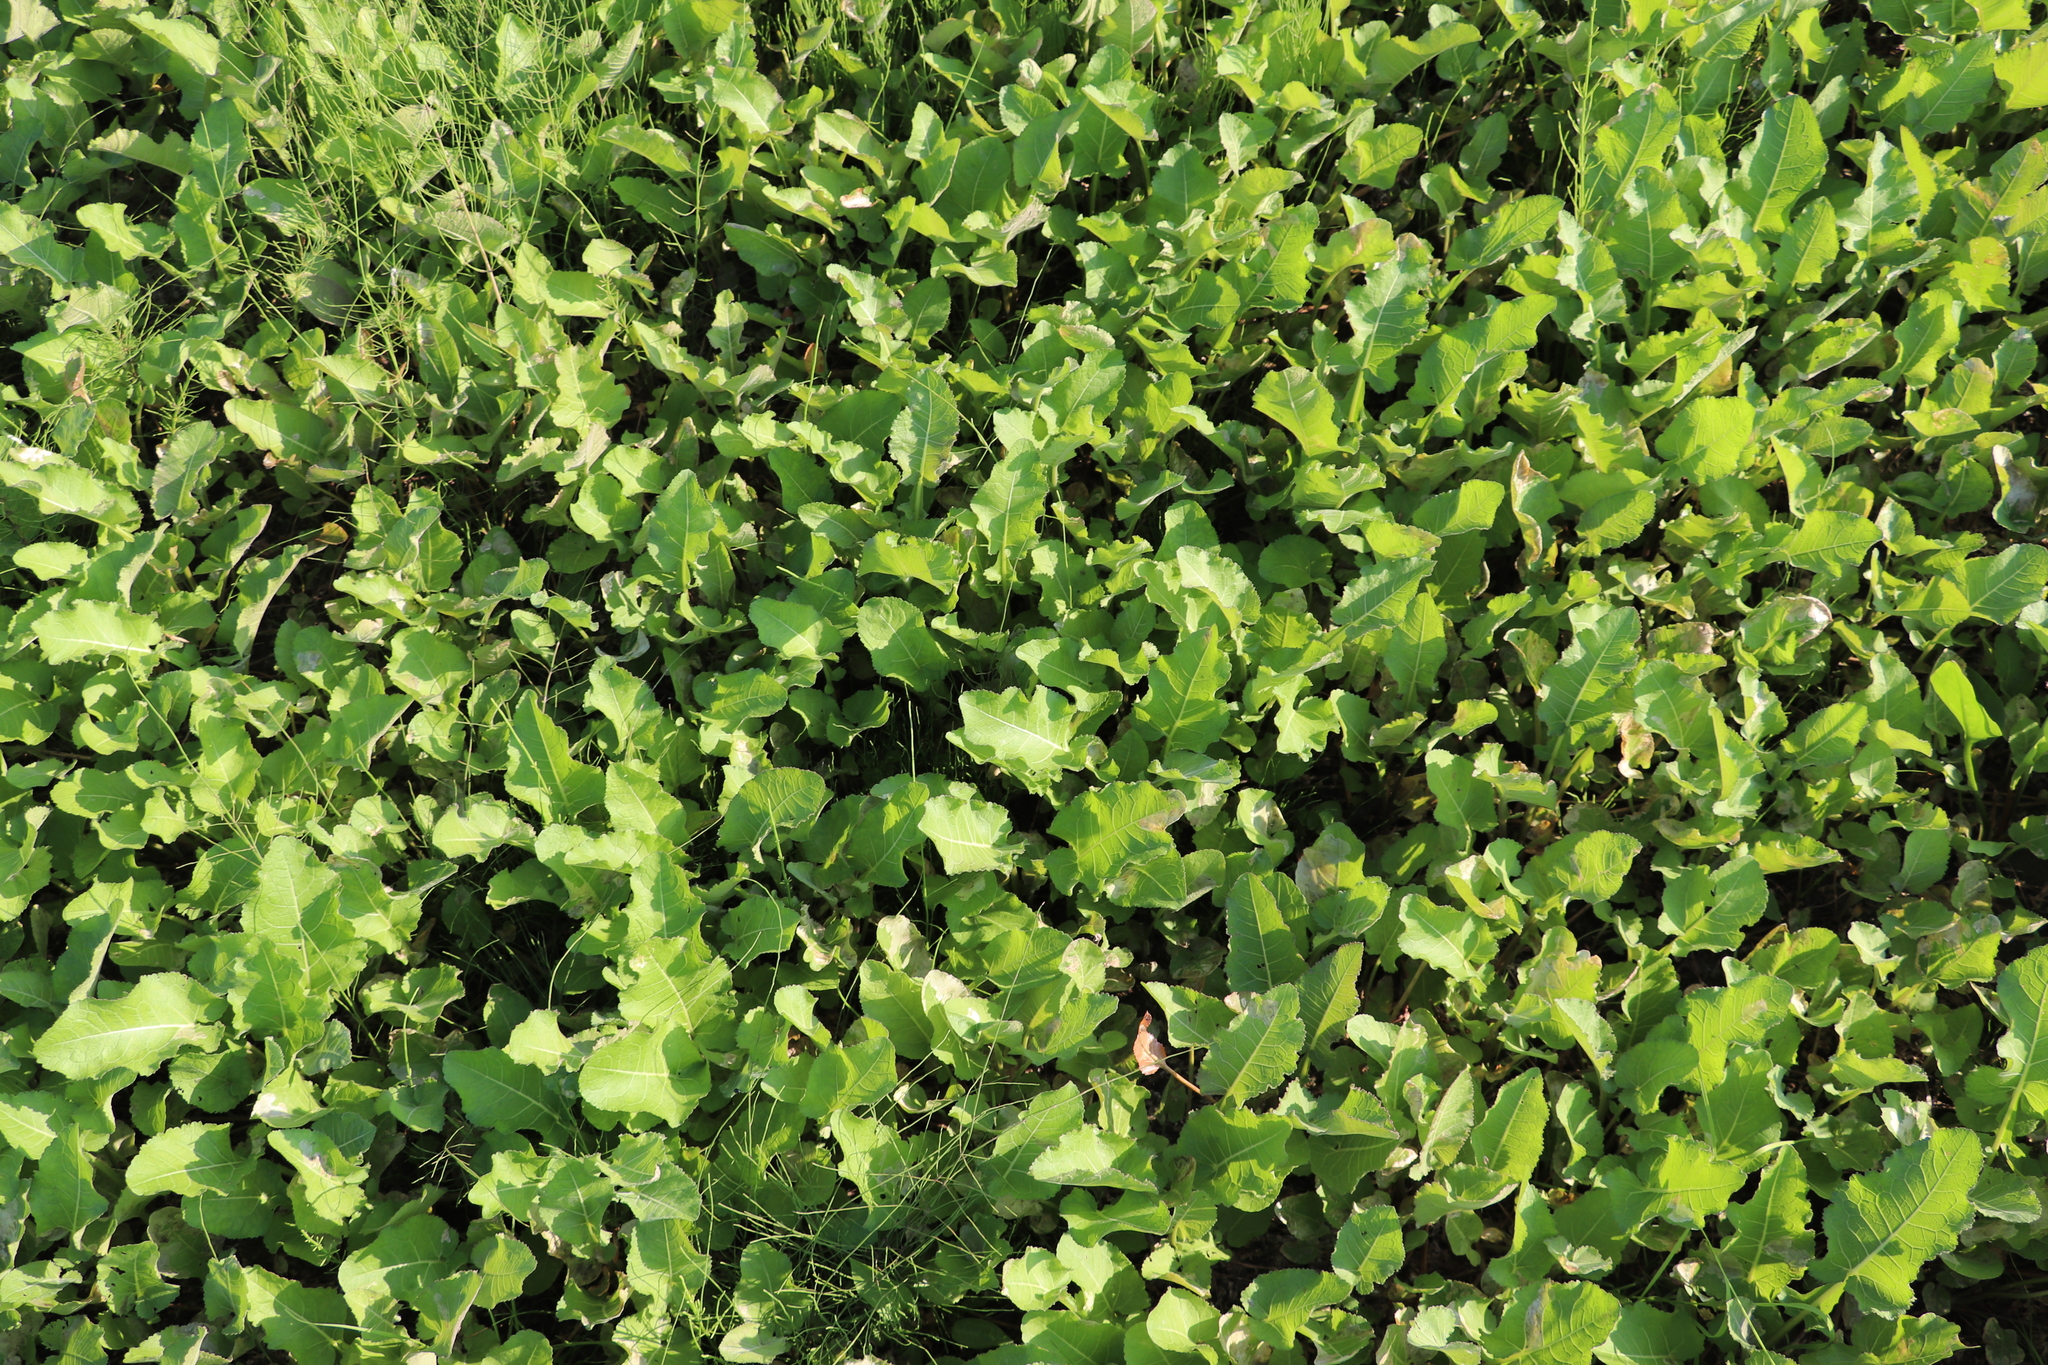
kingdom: Plantae
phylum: Tracheophyta
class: Magnoliopsida
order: Brassicales
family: Brassicaceae
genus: Rorippa
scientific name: Rorippa amphibia
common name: Great yellow-cress
